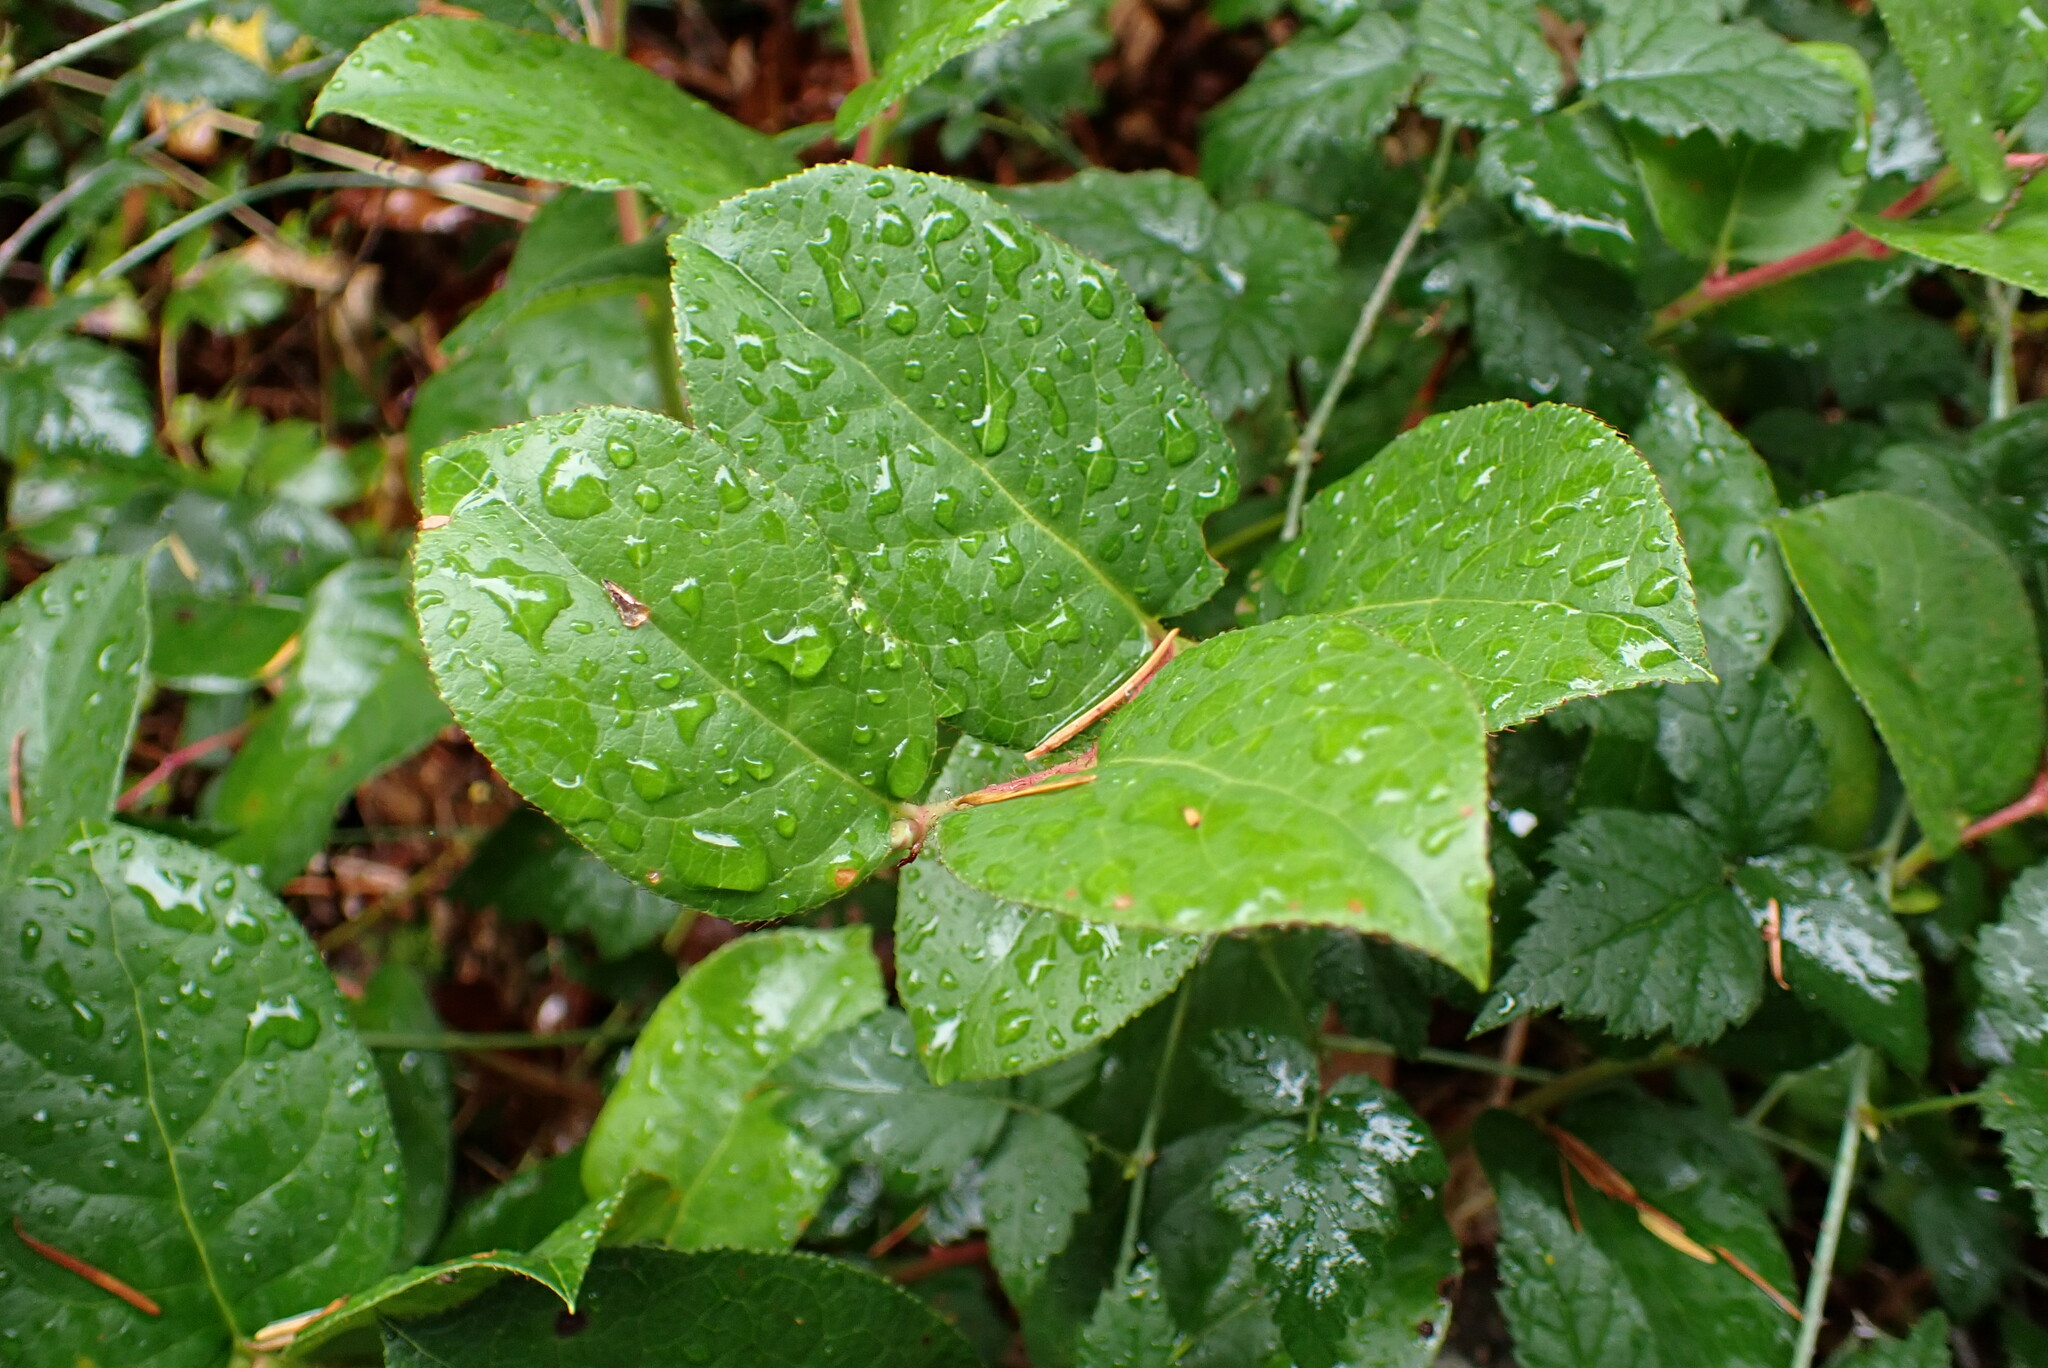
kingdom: Plantae
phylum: Tracheophyta
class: Magnoliopsida
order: Ericales
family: Ericaceae
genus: Gaultheria
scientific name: Gaultheria shallon
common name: Shallon
